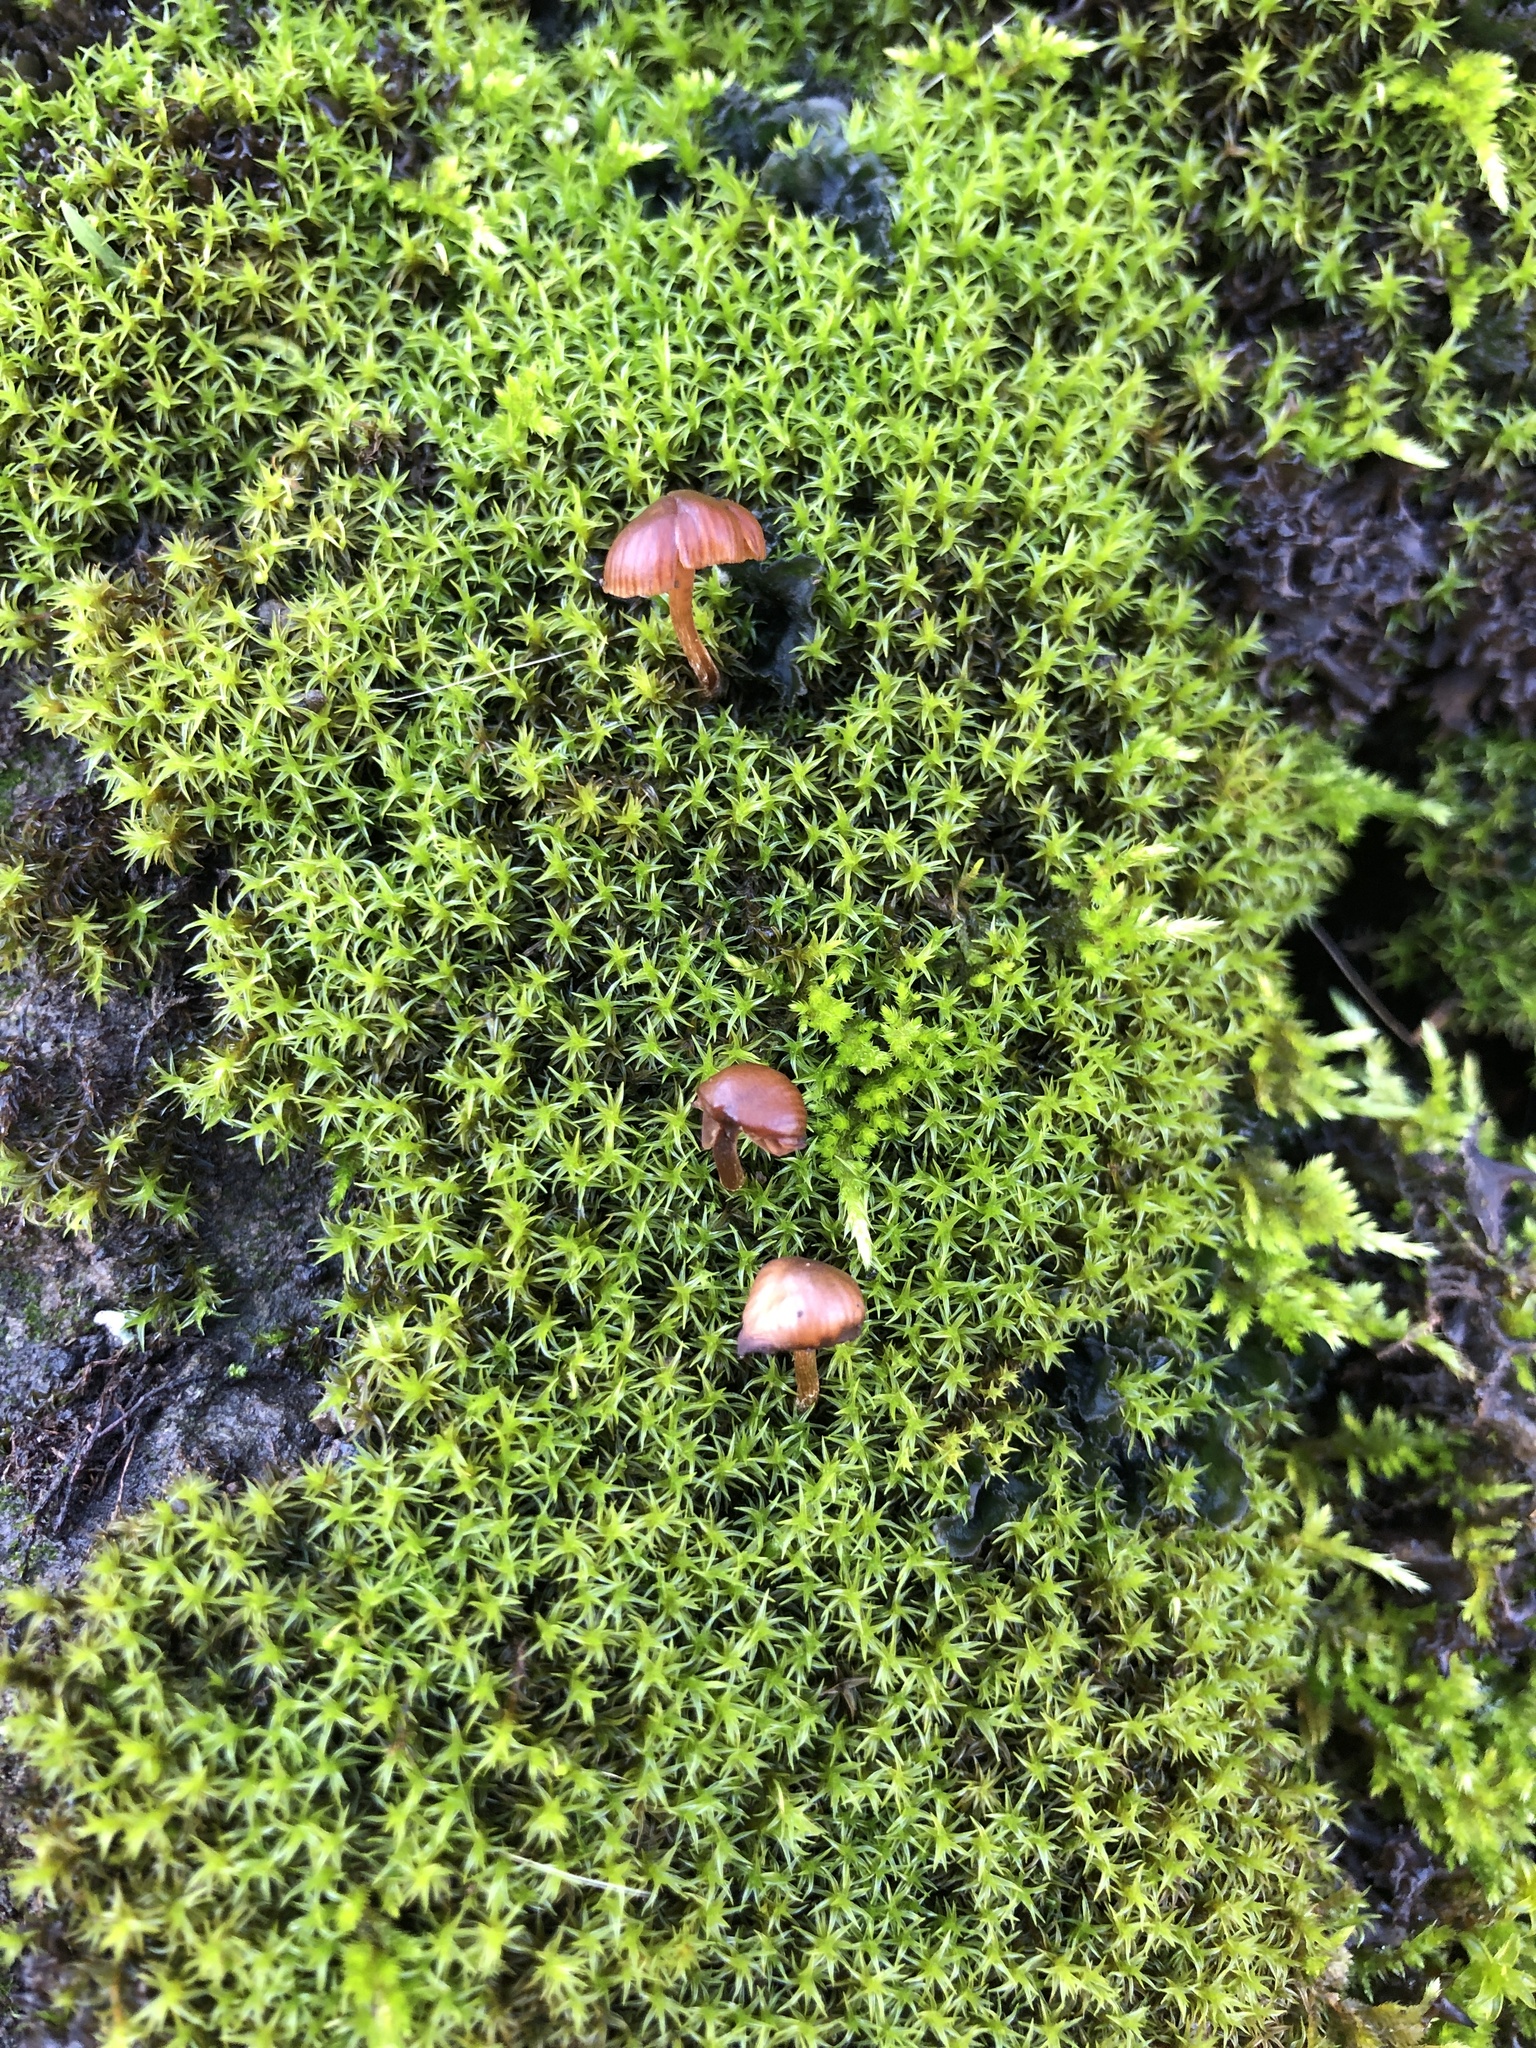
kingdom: Fungi
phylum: Basidiomycota
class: Agaricomycetes
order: Agaricales
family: Strophariaceae
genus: Deconica
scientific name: Deconica montana
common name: Mountain moss deconica
